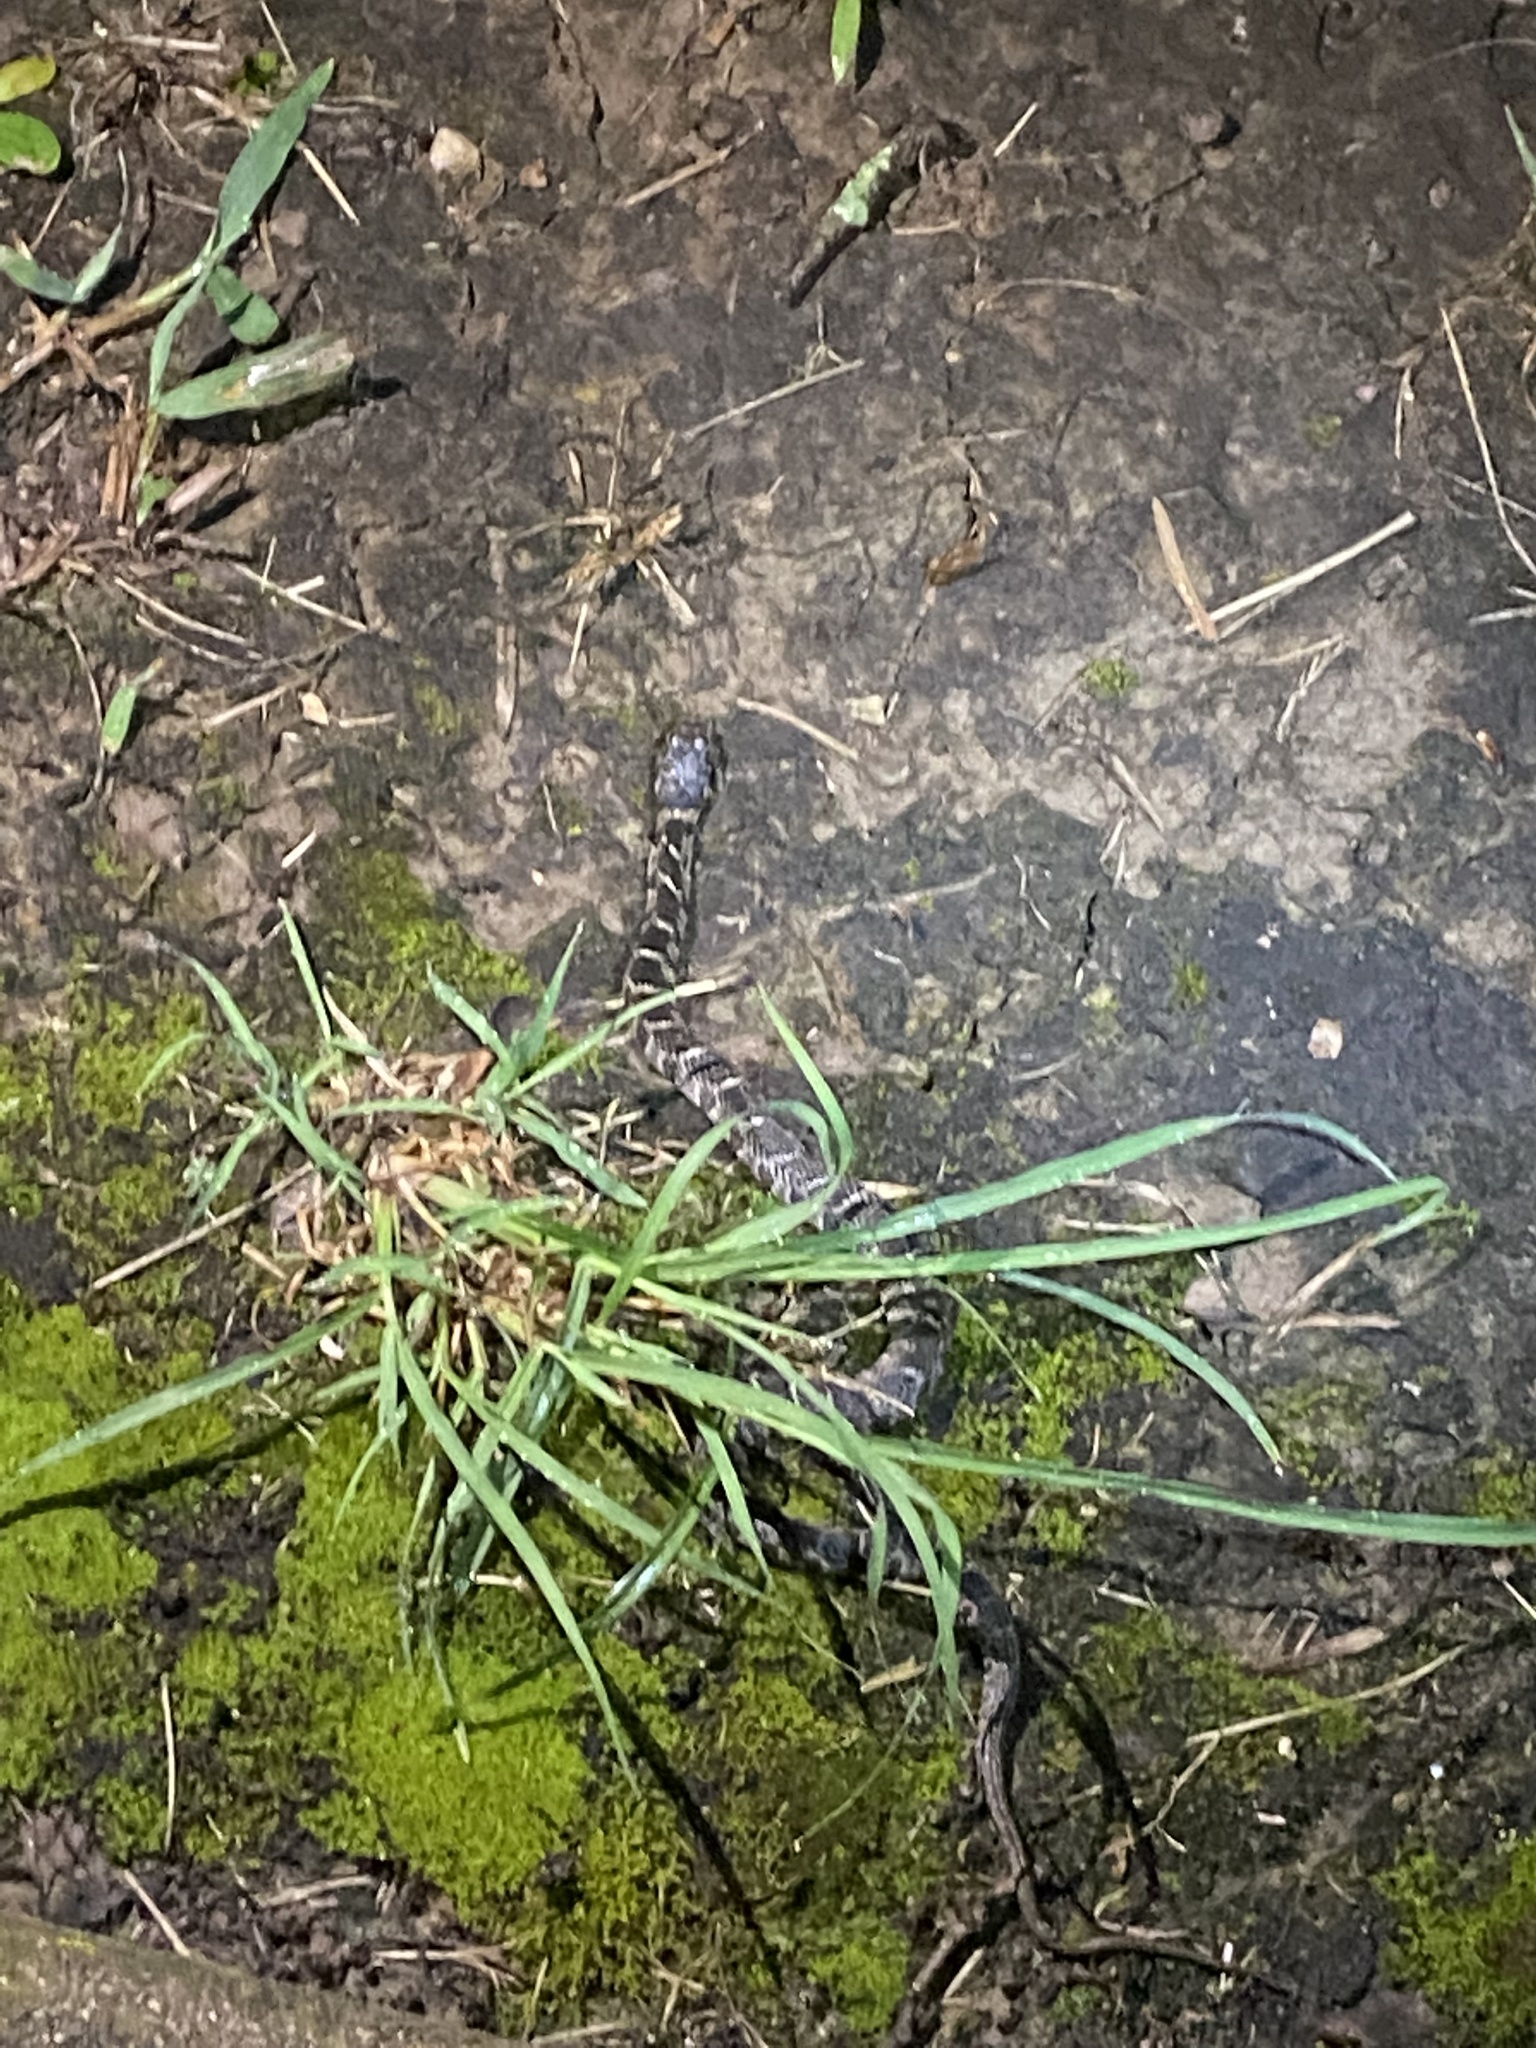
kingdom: Animalia
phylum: Chordata
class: Squamata
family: Colubridae
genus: Nerodia
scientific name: Nerodia erythrogaster
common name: Plainbelly water snake
